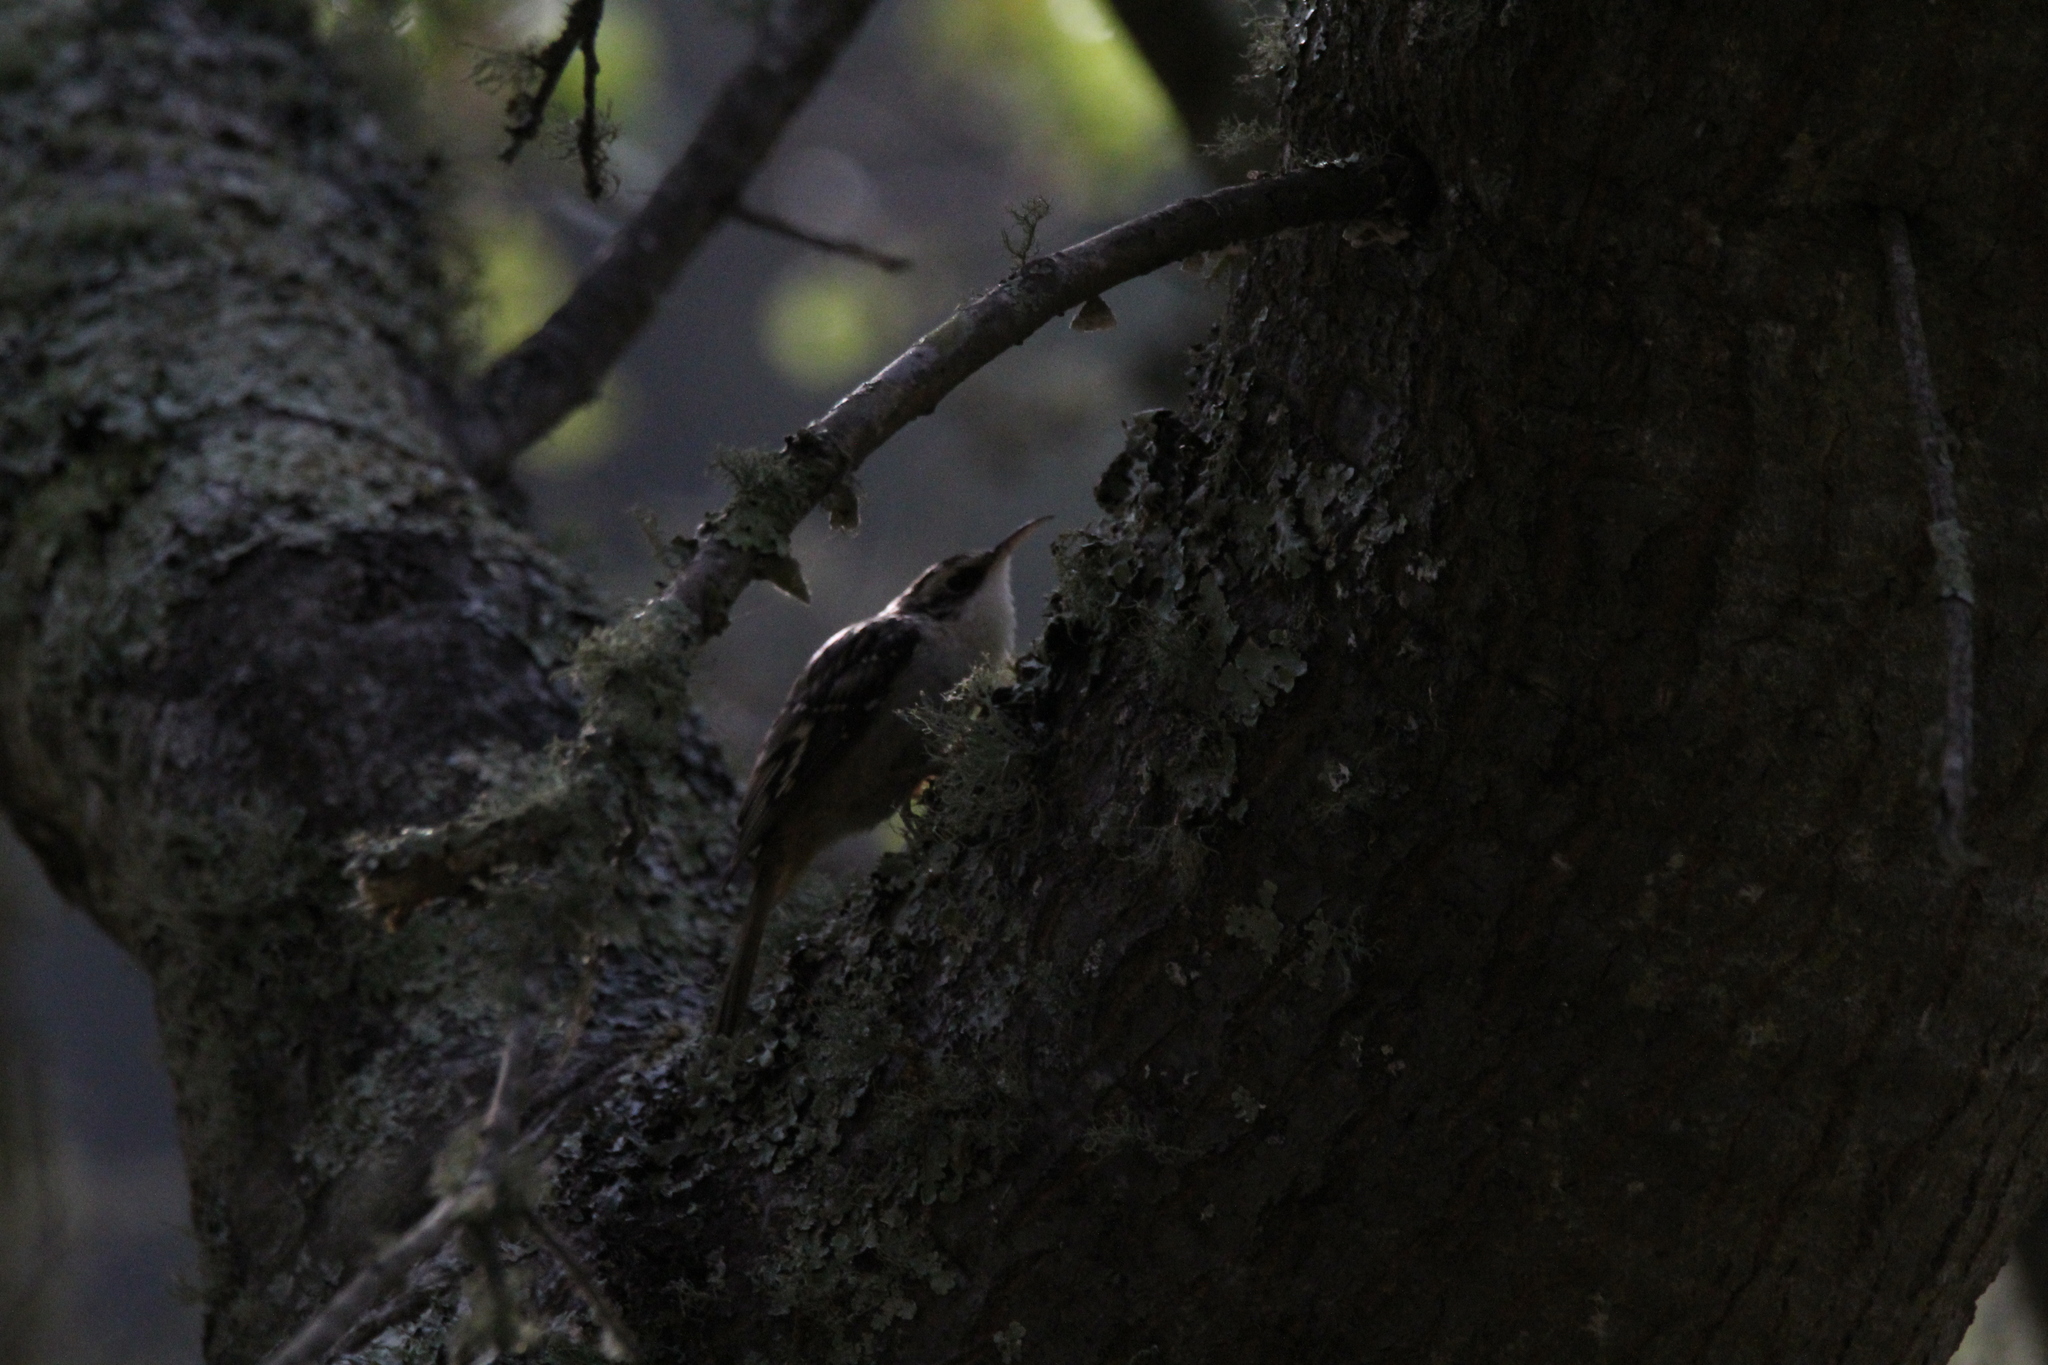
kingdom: Animalia
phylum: Chordata
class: Aves
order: Passeriformes
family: Certhiidae
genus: Certhia
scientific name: Certhia americana
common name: Brown creeper
